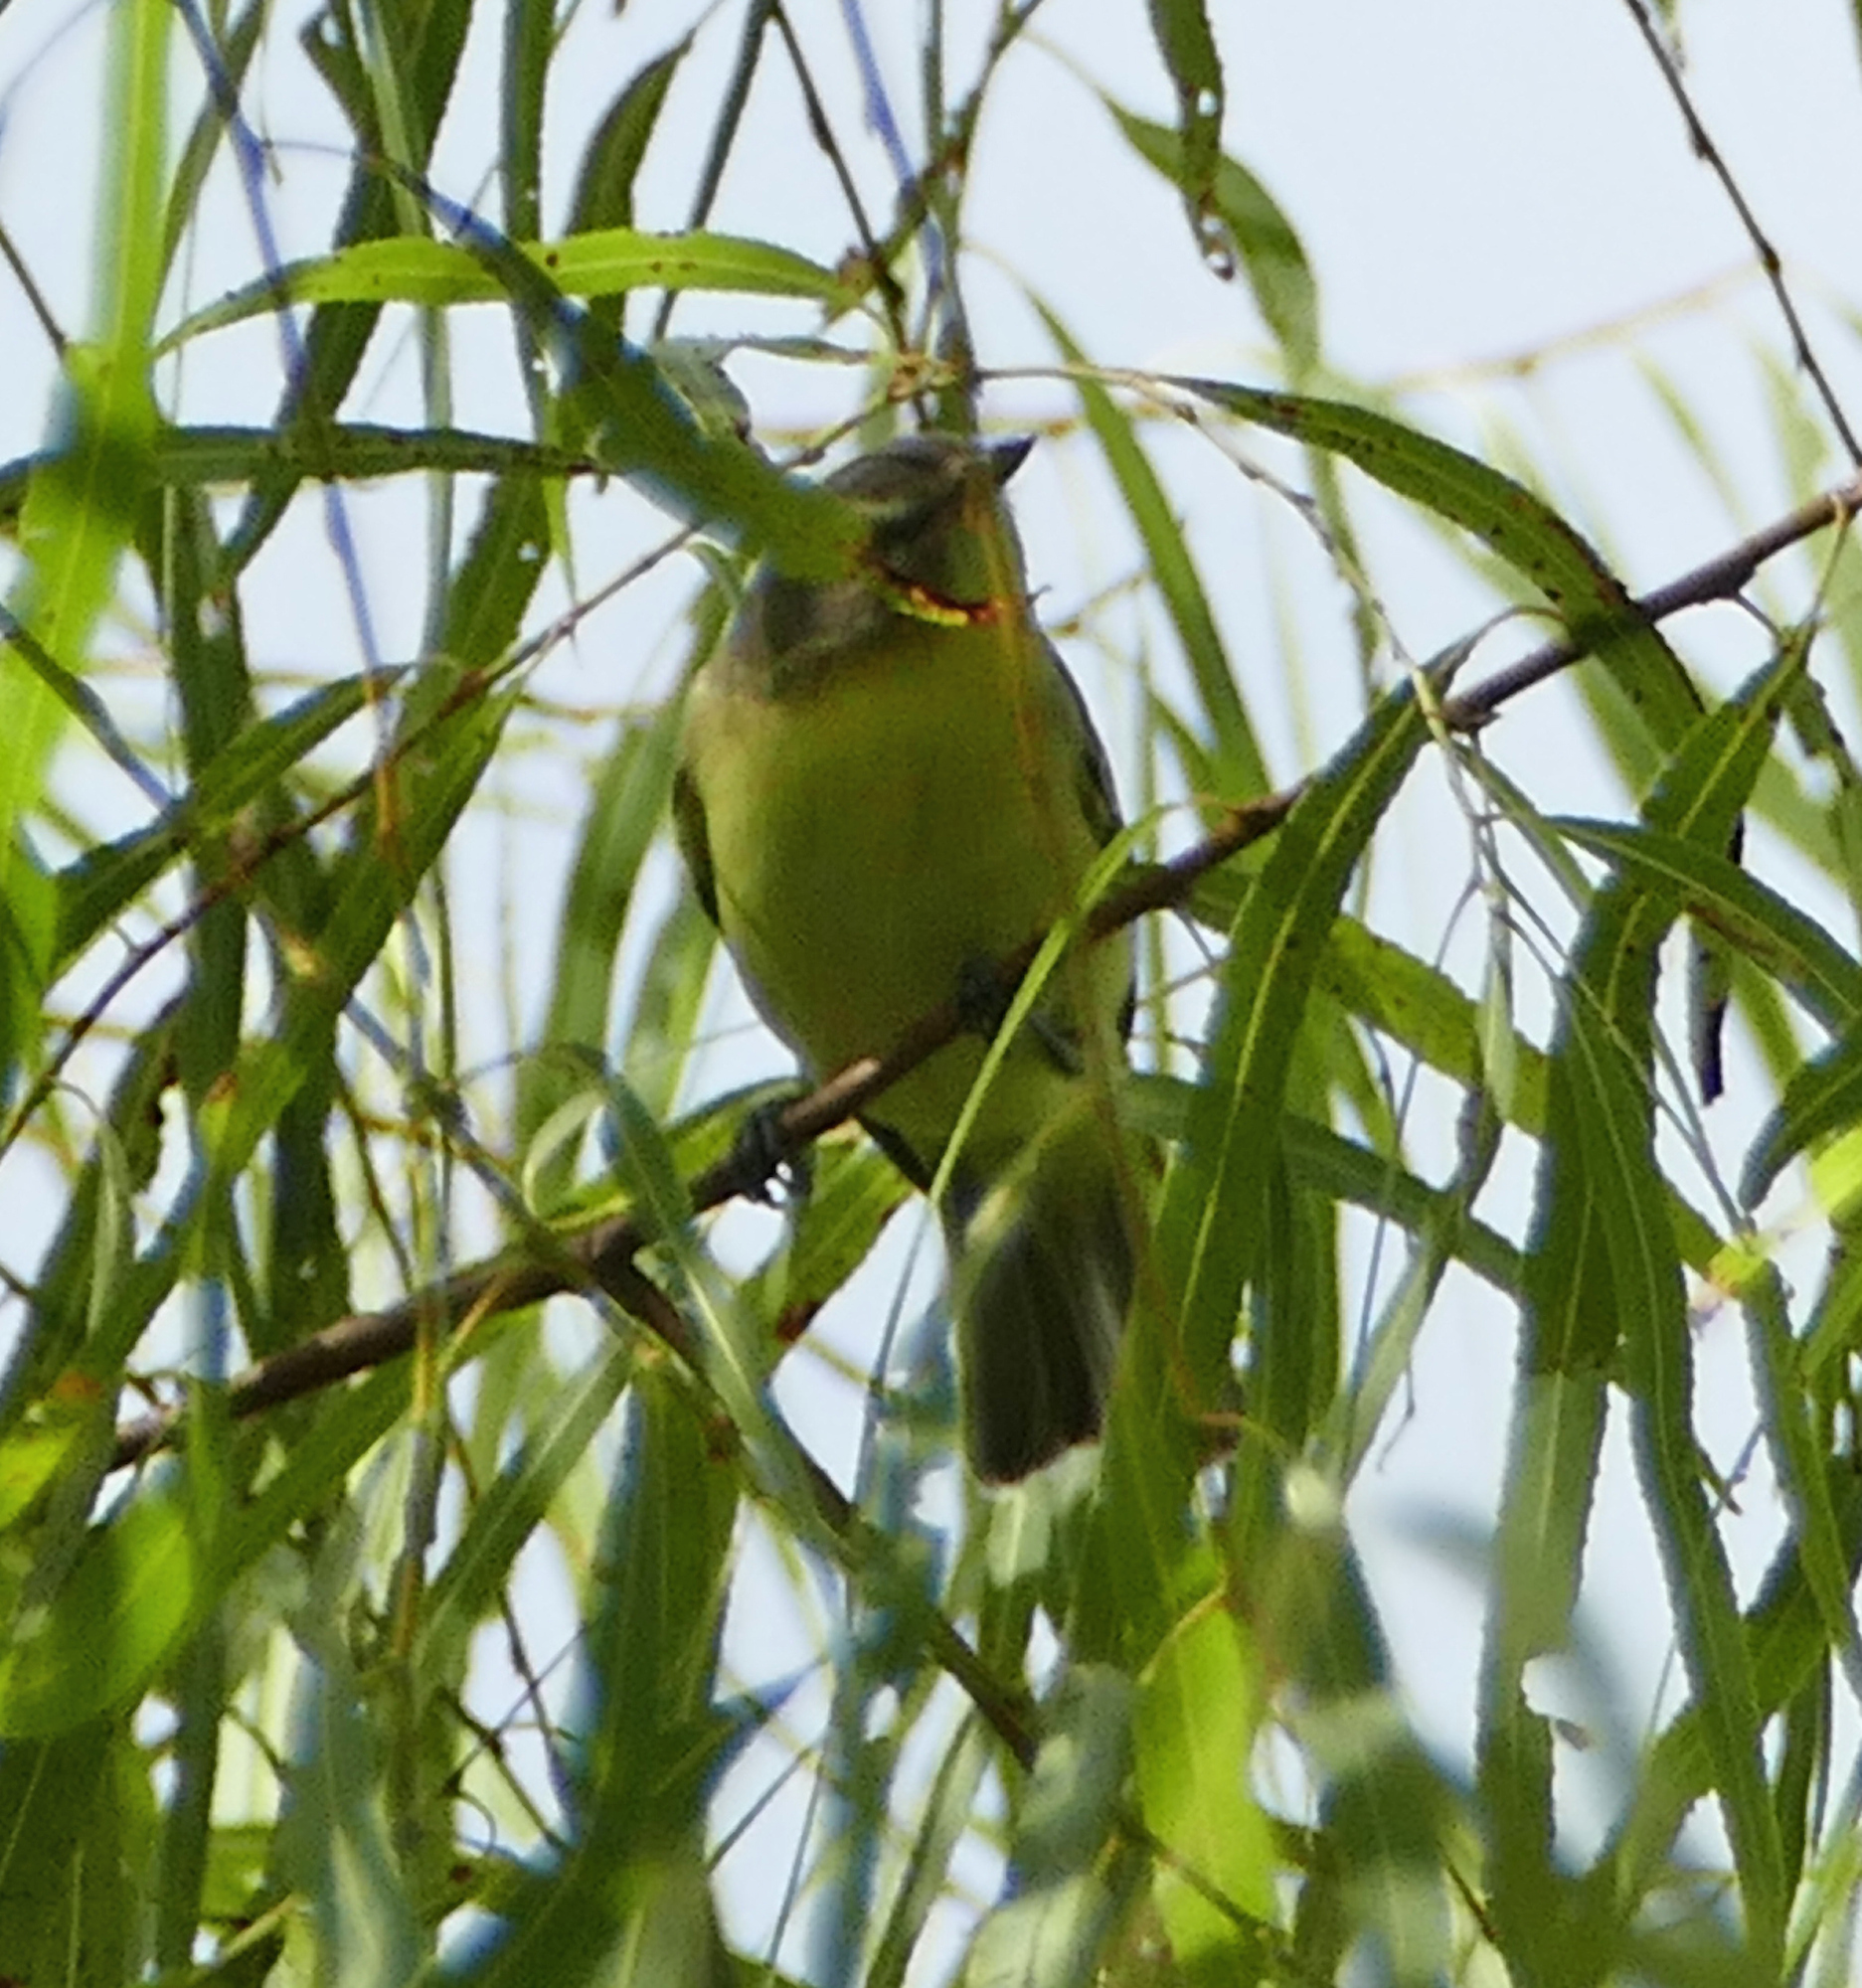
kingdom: Animalia
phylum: Chordata
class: Aves
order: Passeriformes
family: Vireonidae
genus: Vireo
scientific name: Vireo philadelphicus
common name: Philadelphia vireo
